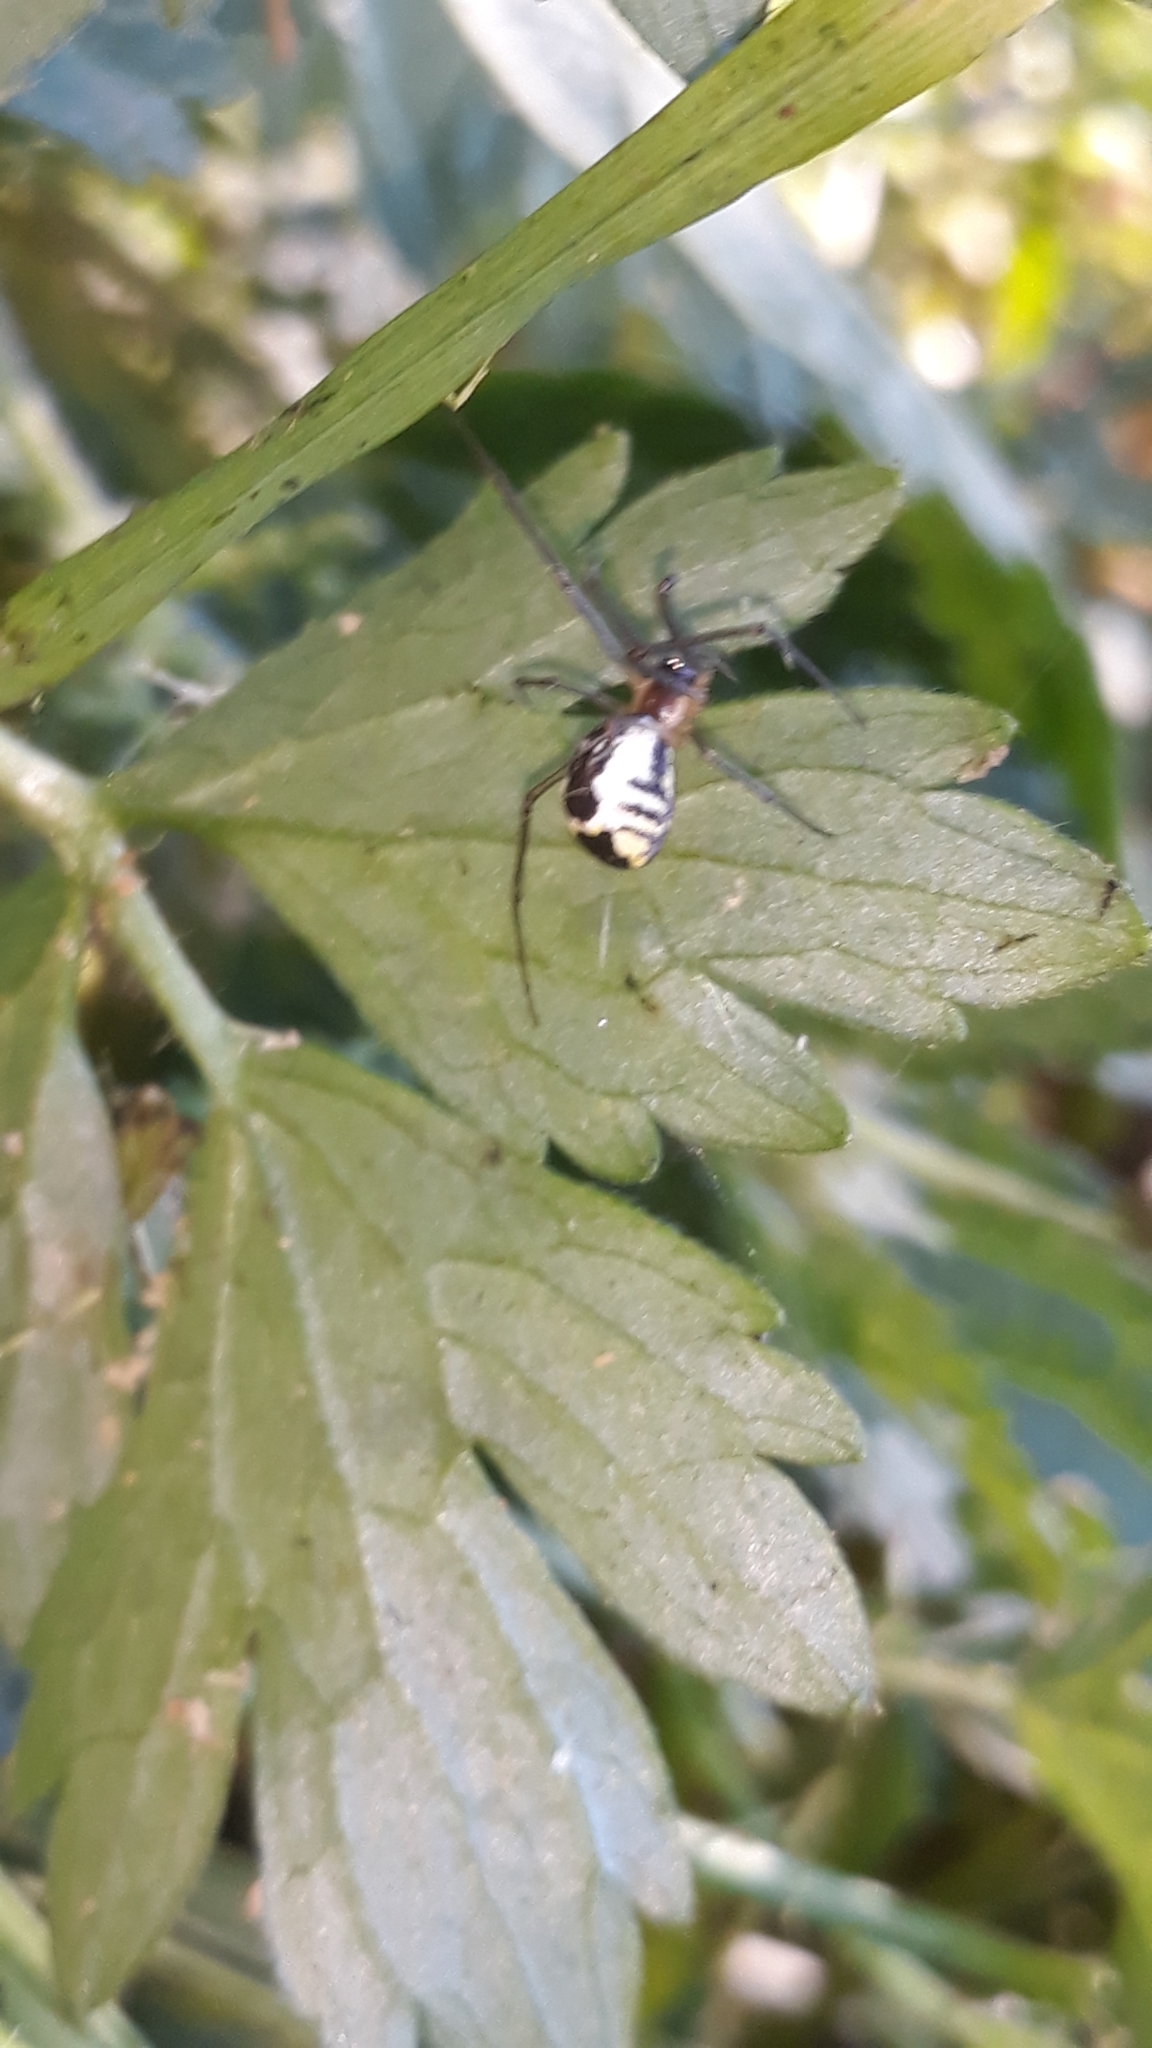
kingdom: Animalia
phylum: Arthropoda
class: Arachnida
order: Araneae
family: Linyphiidae
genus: Neriene
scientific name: Neriene radiata
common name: Filmy dome spider
